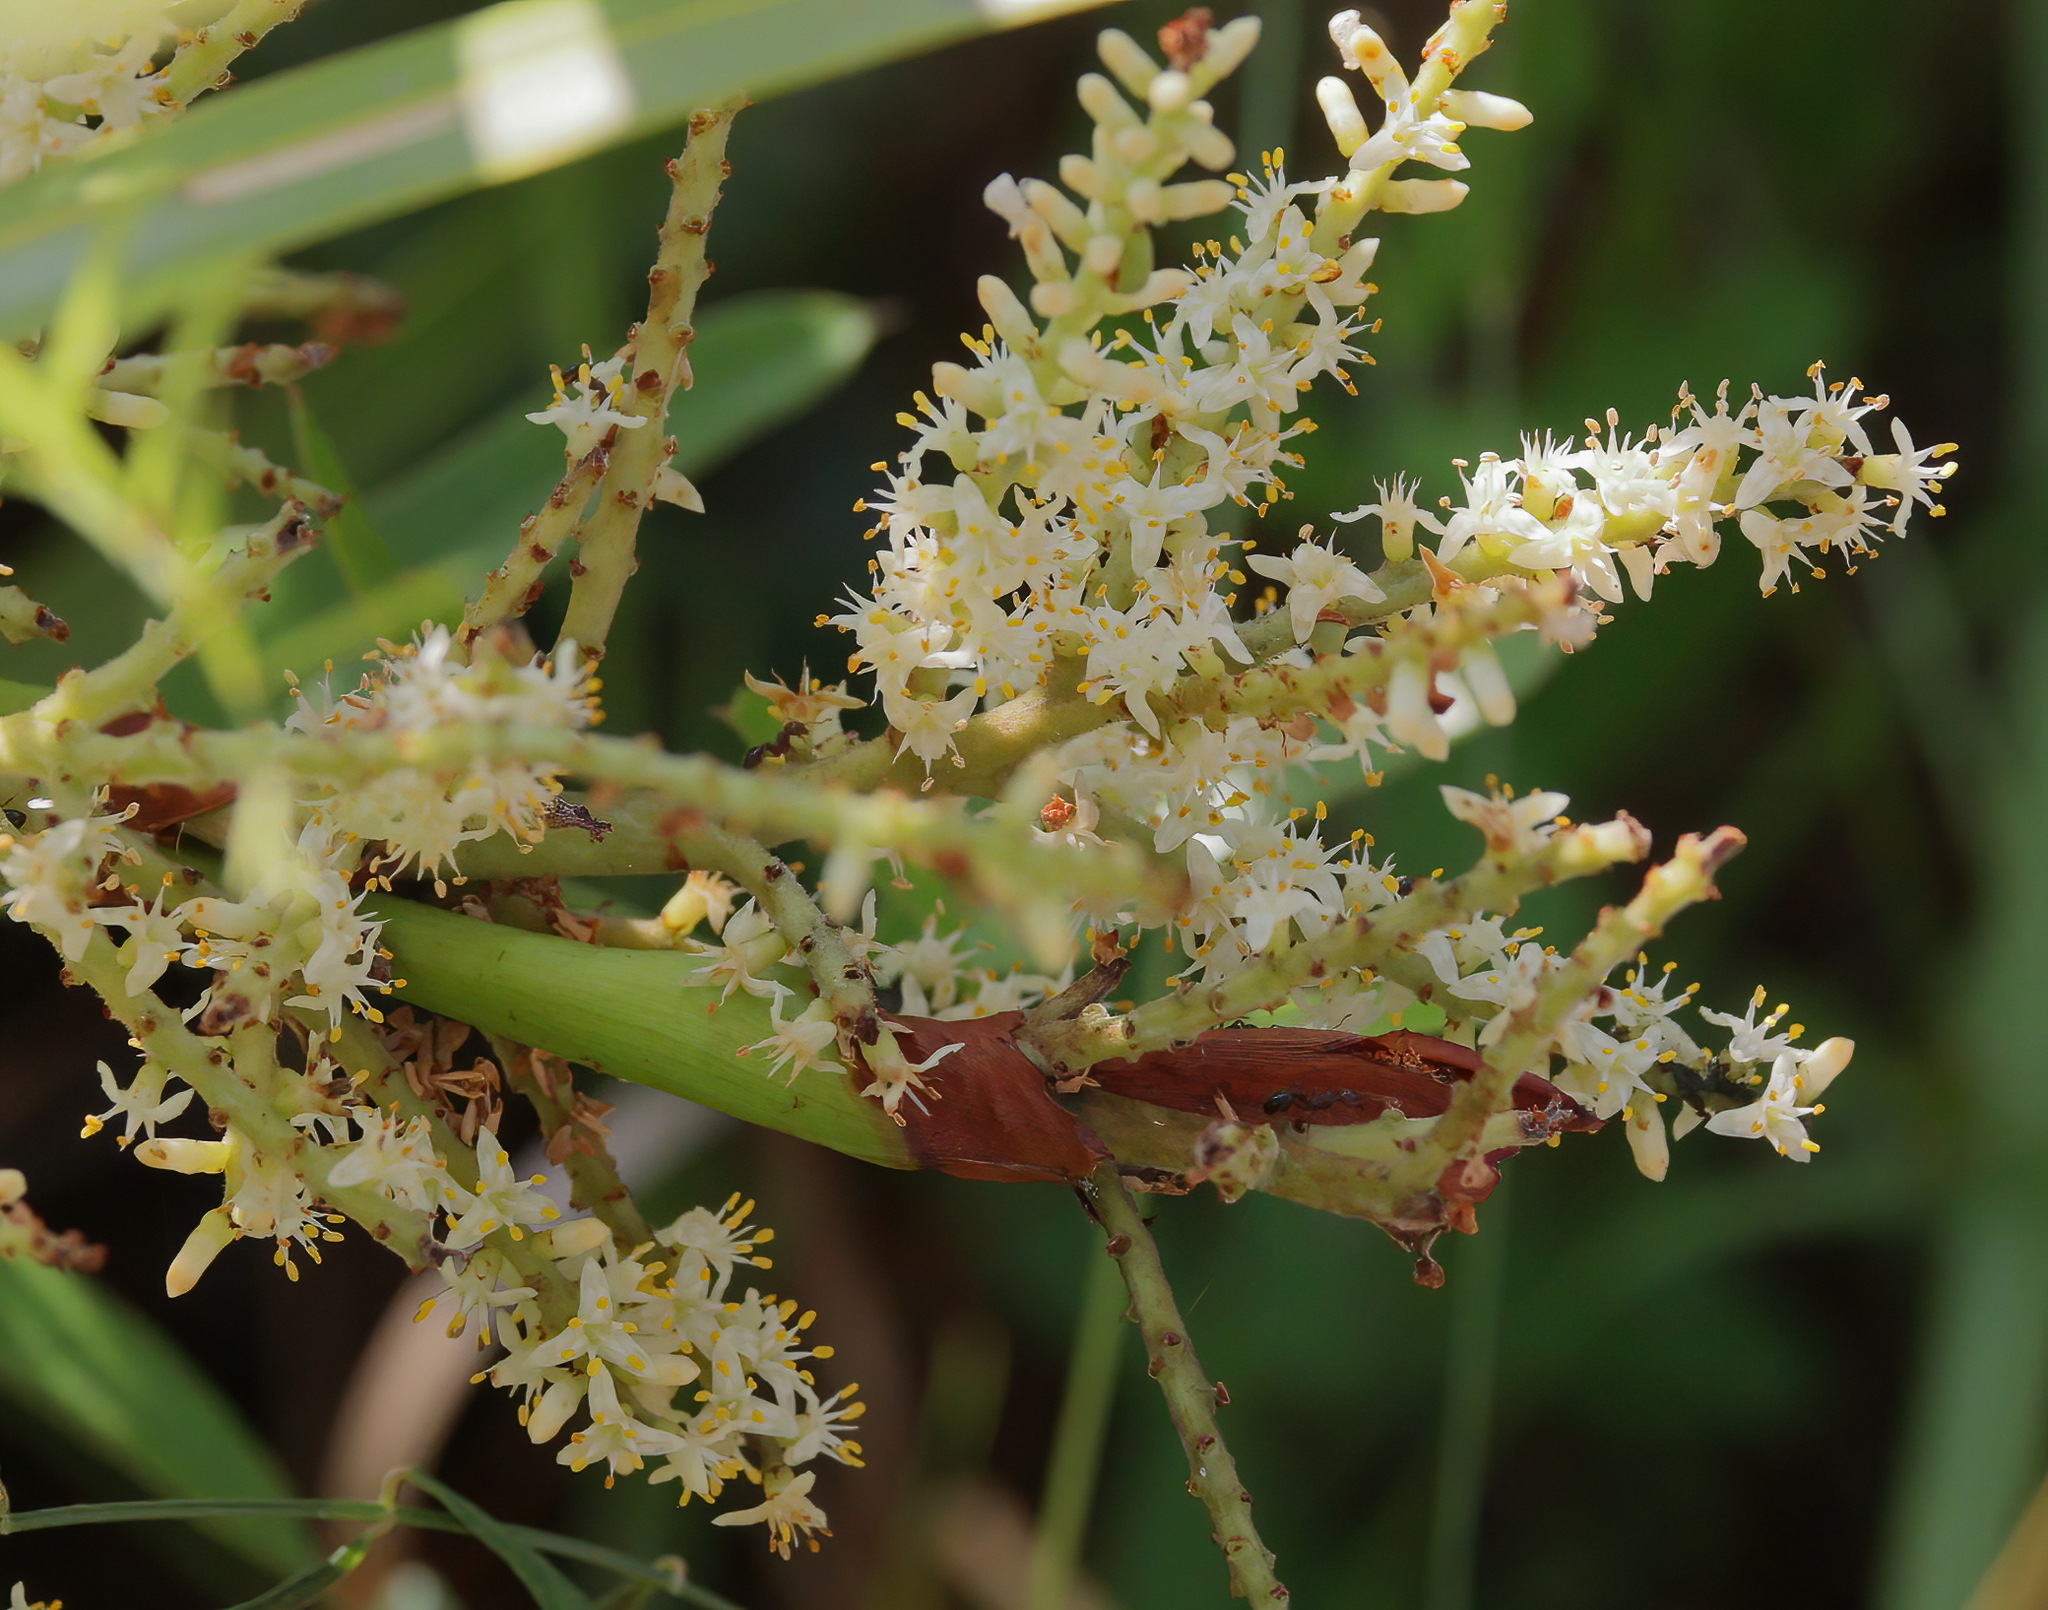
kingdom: Plantae
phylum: Tracheophyta
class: Liliopsida
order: Arecales
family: Arecaceae
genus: Serenoa
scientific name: Serenoa repens
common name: Saw-palmetto
